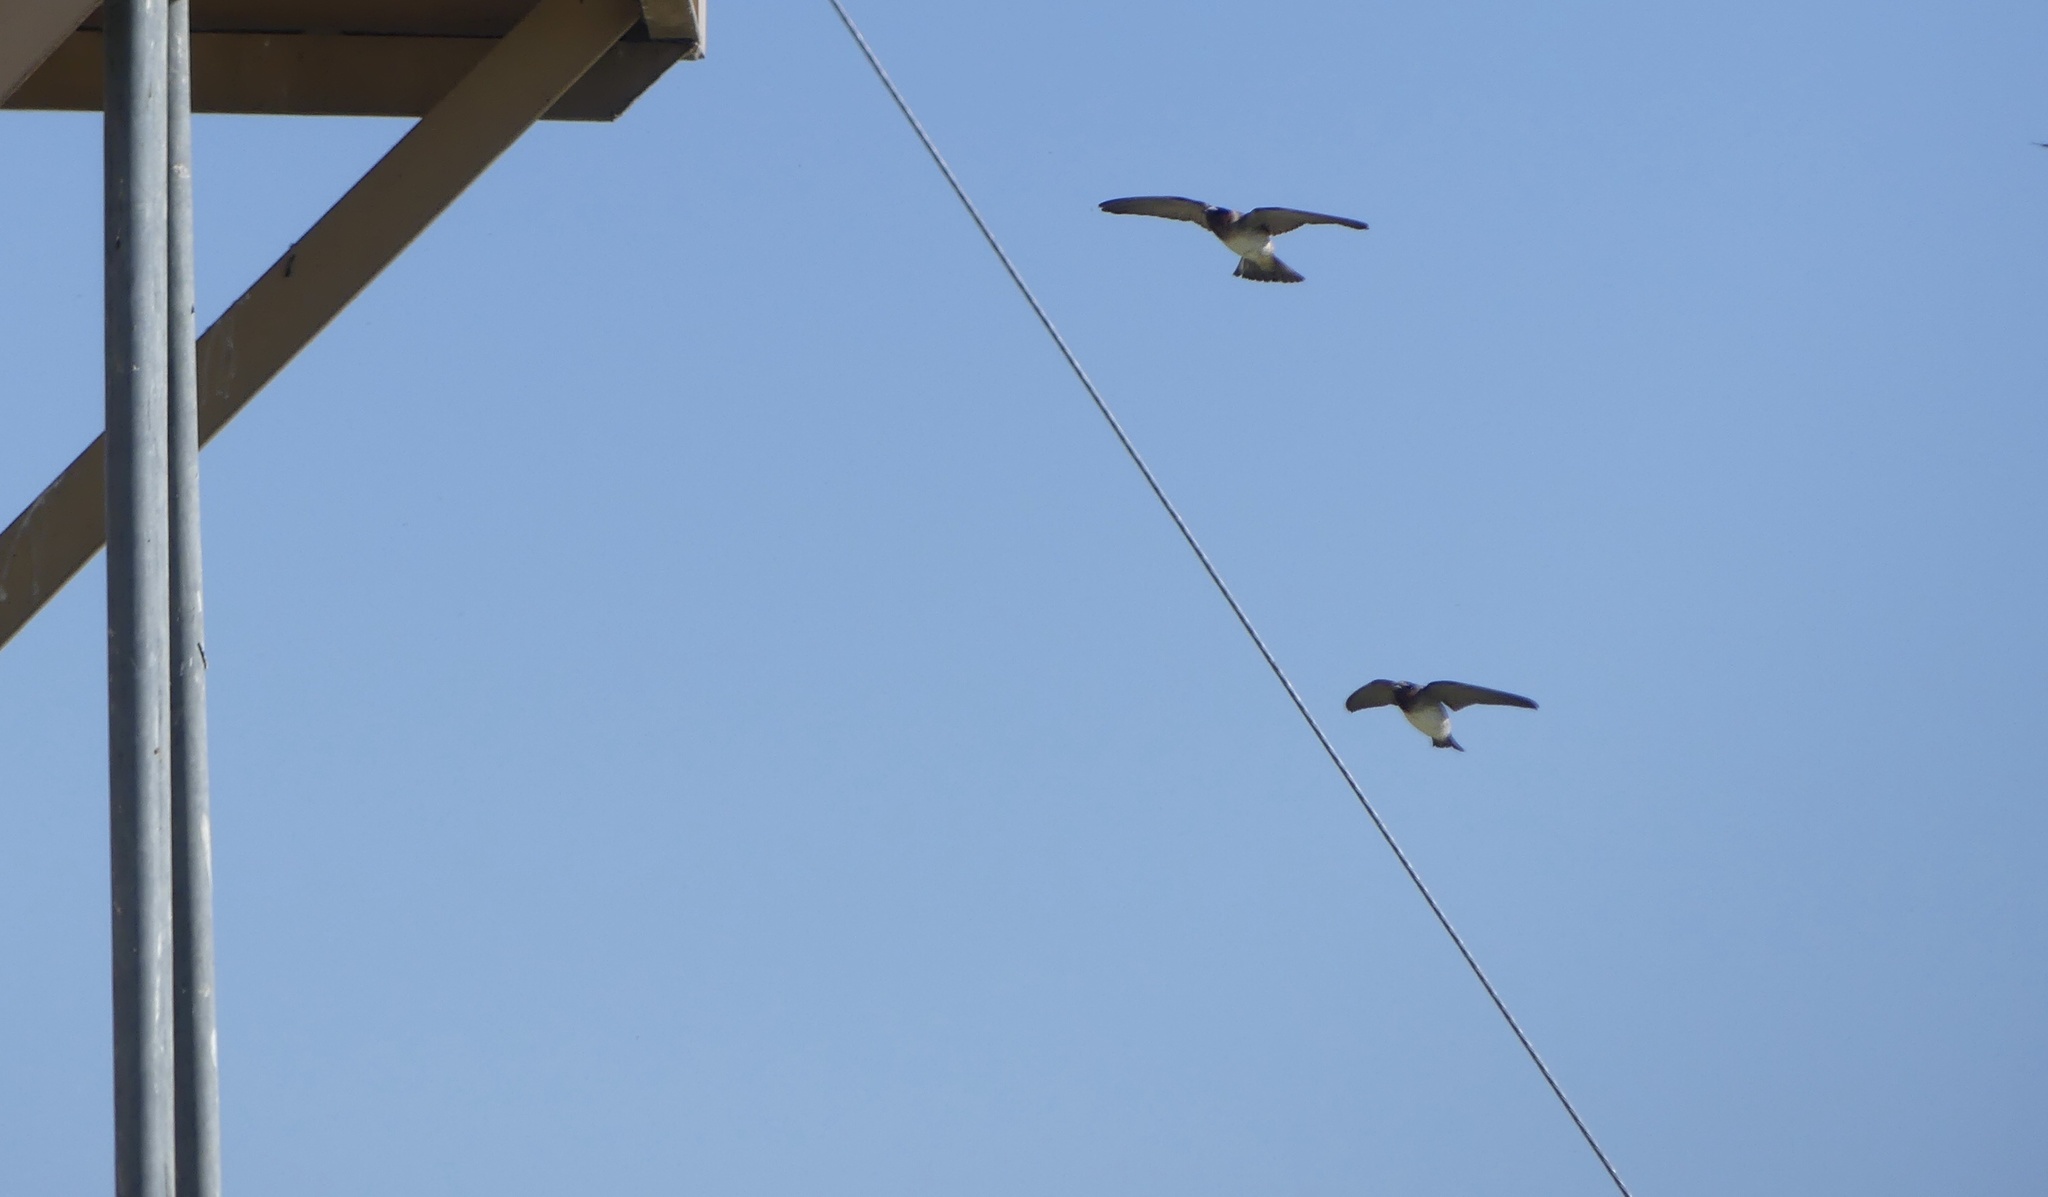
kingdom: Animalia
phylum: Chordata
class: Aves
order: Passeriformes
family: Hirundinidae
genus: Petrochelidon
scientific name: Petrochelidon pyrrhonota
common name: American cliff swallow
